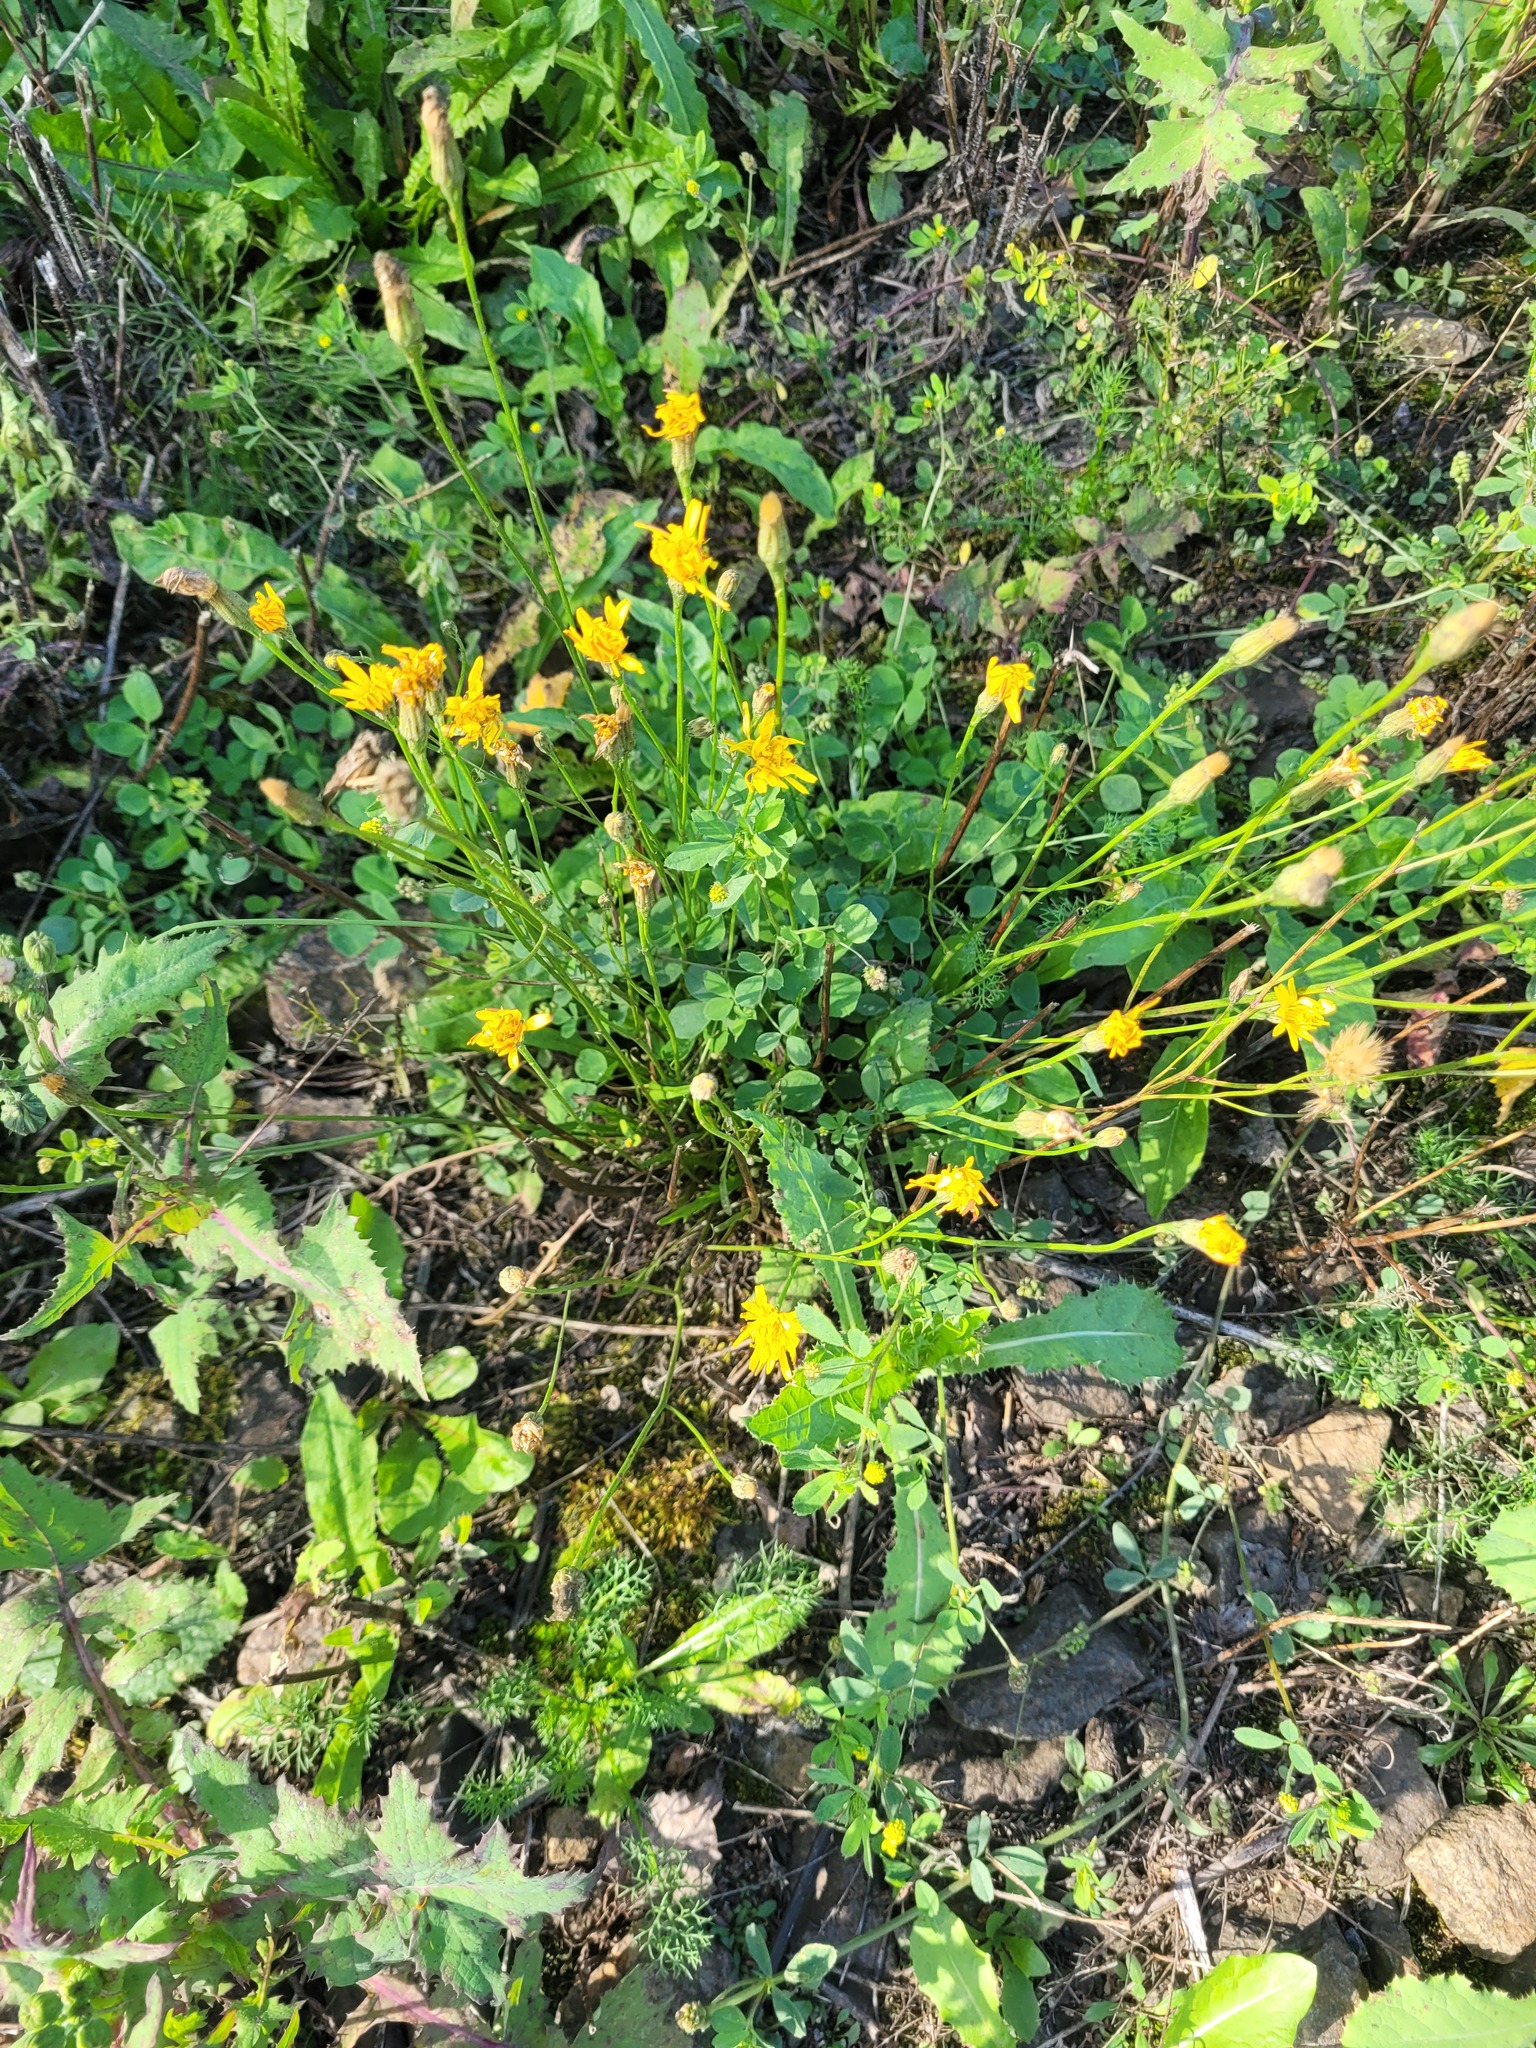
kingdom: Plantae
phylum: Tracheophyta
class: Magnoliopsida
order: Asterales
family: Asteraceae
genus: Scorzoneroides
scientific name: Scorzoneroides autumnalis
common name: Autumn hawkbit
